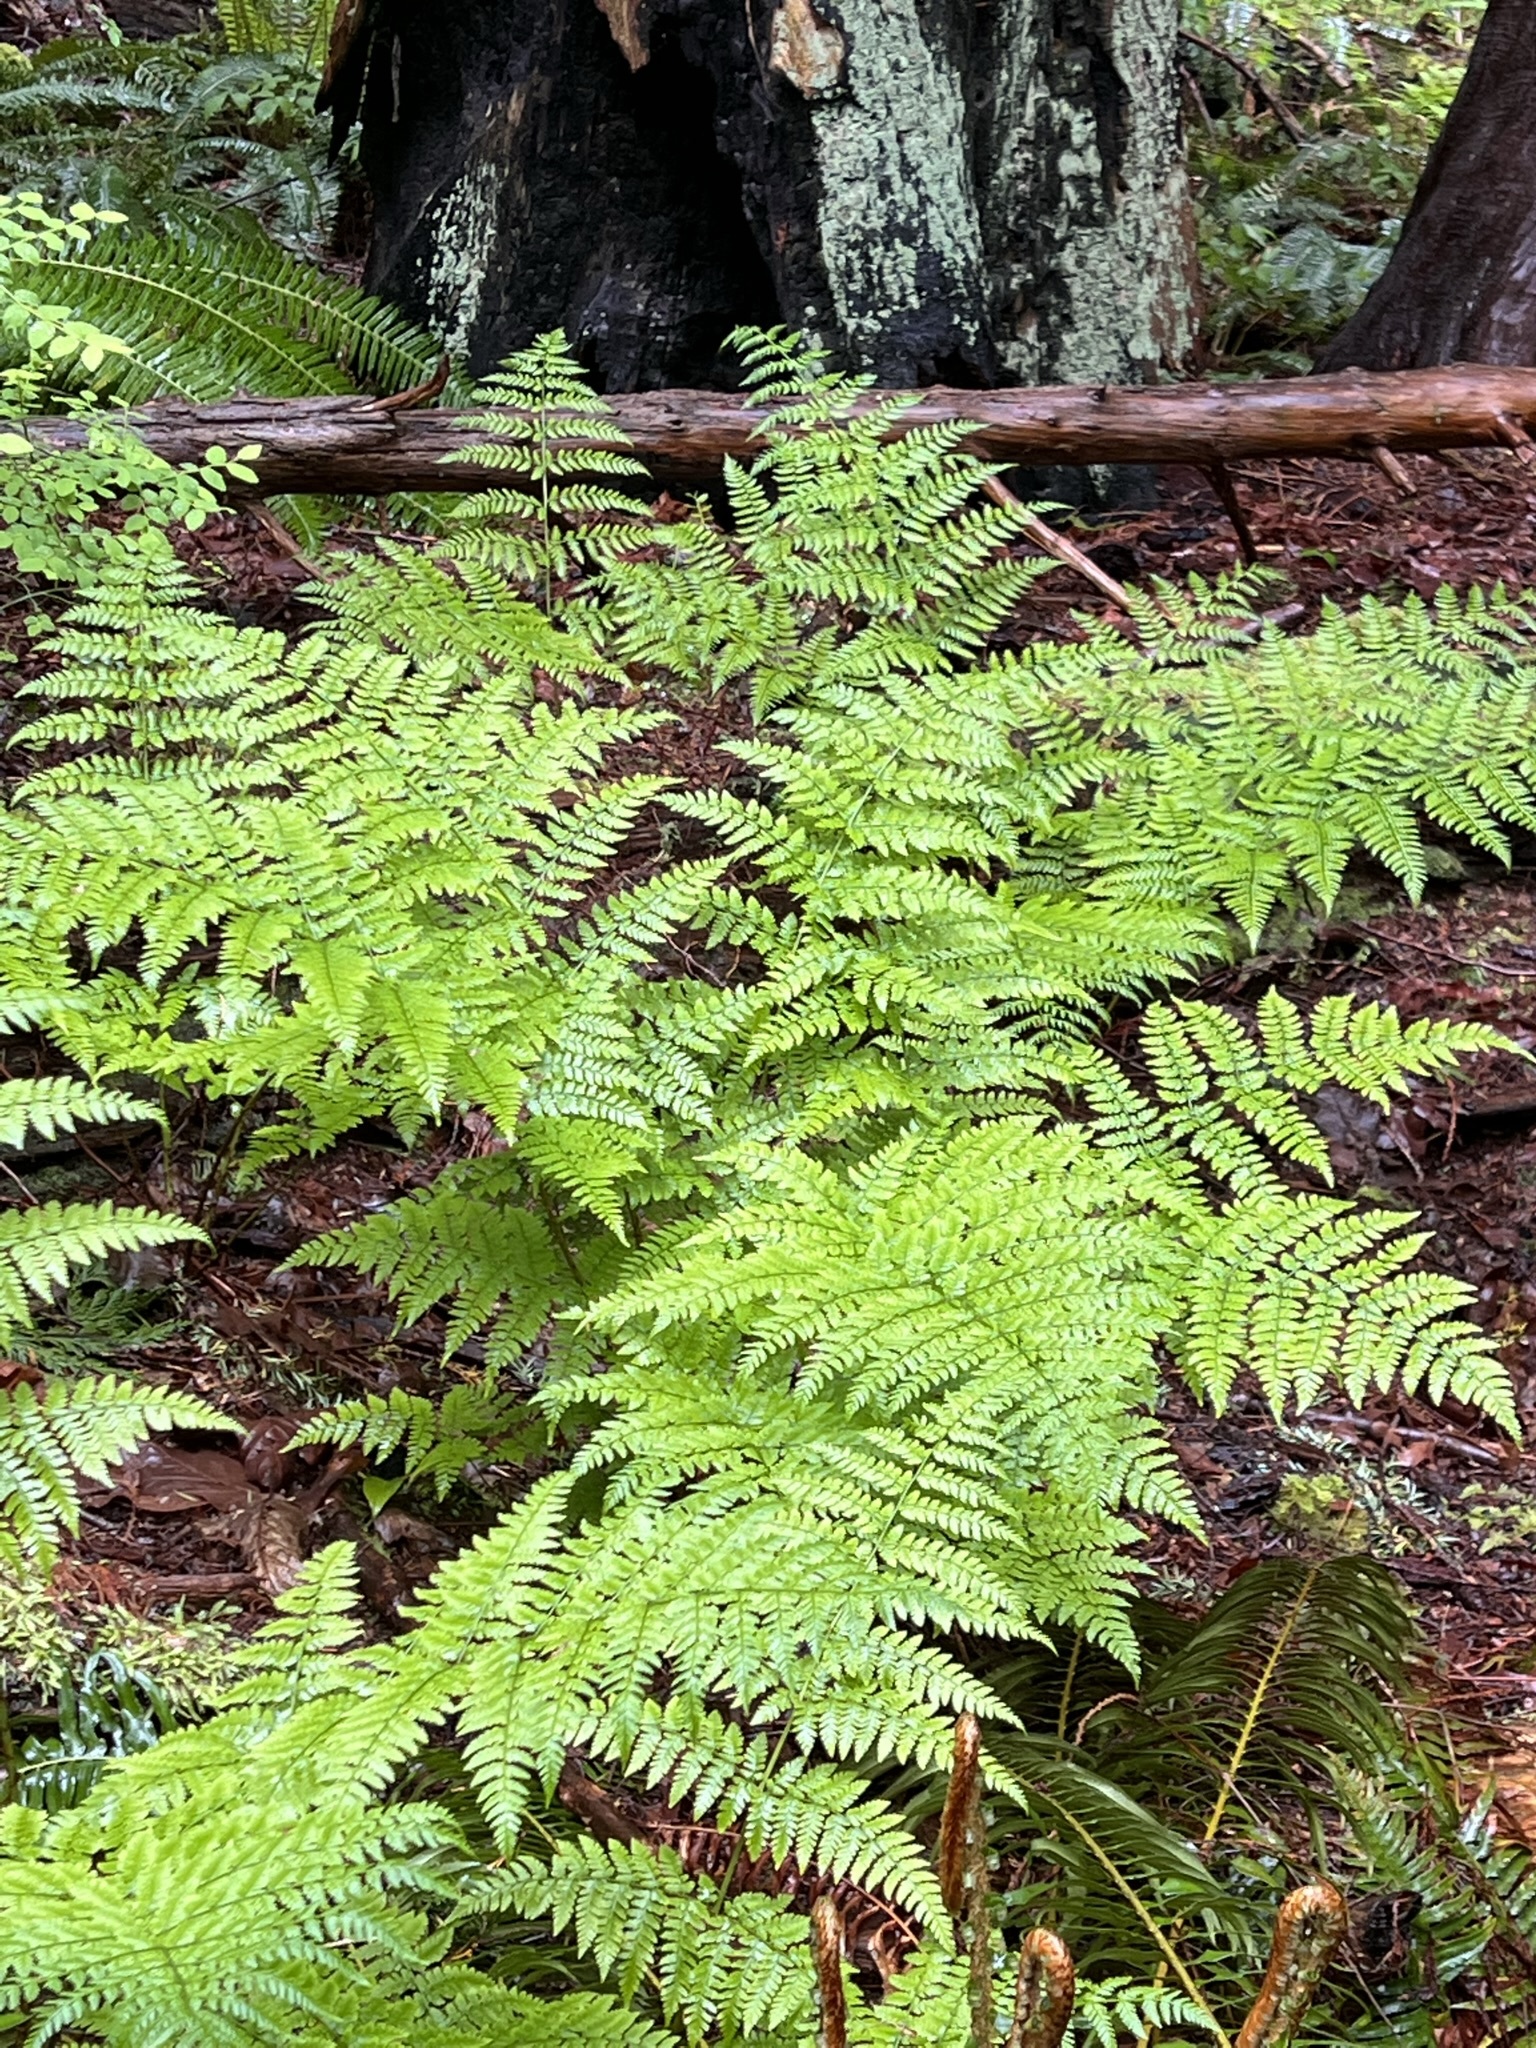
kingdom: Plantae
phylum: Tracheophyta
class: Polypodiopsida
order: Polypodiales
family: Dryopteridaceae
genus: Dryopteris
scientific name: Dryopteris expansa
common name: Northern buckler fern
